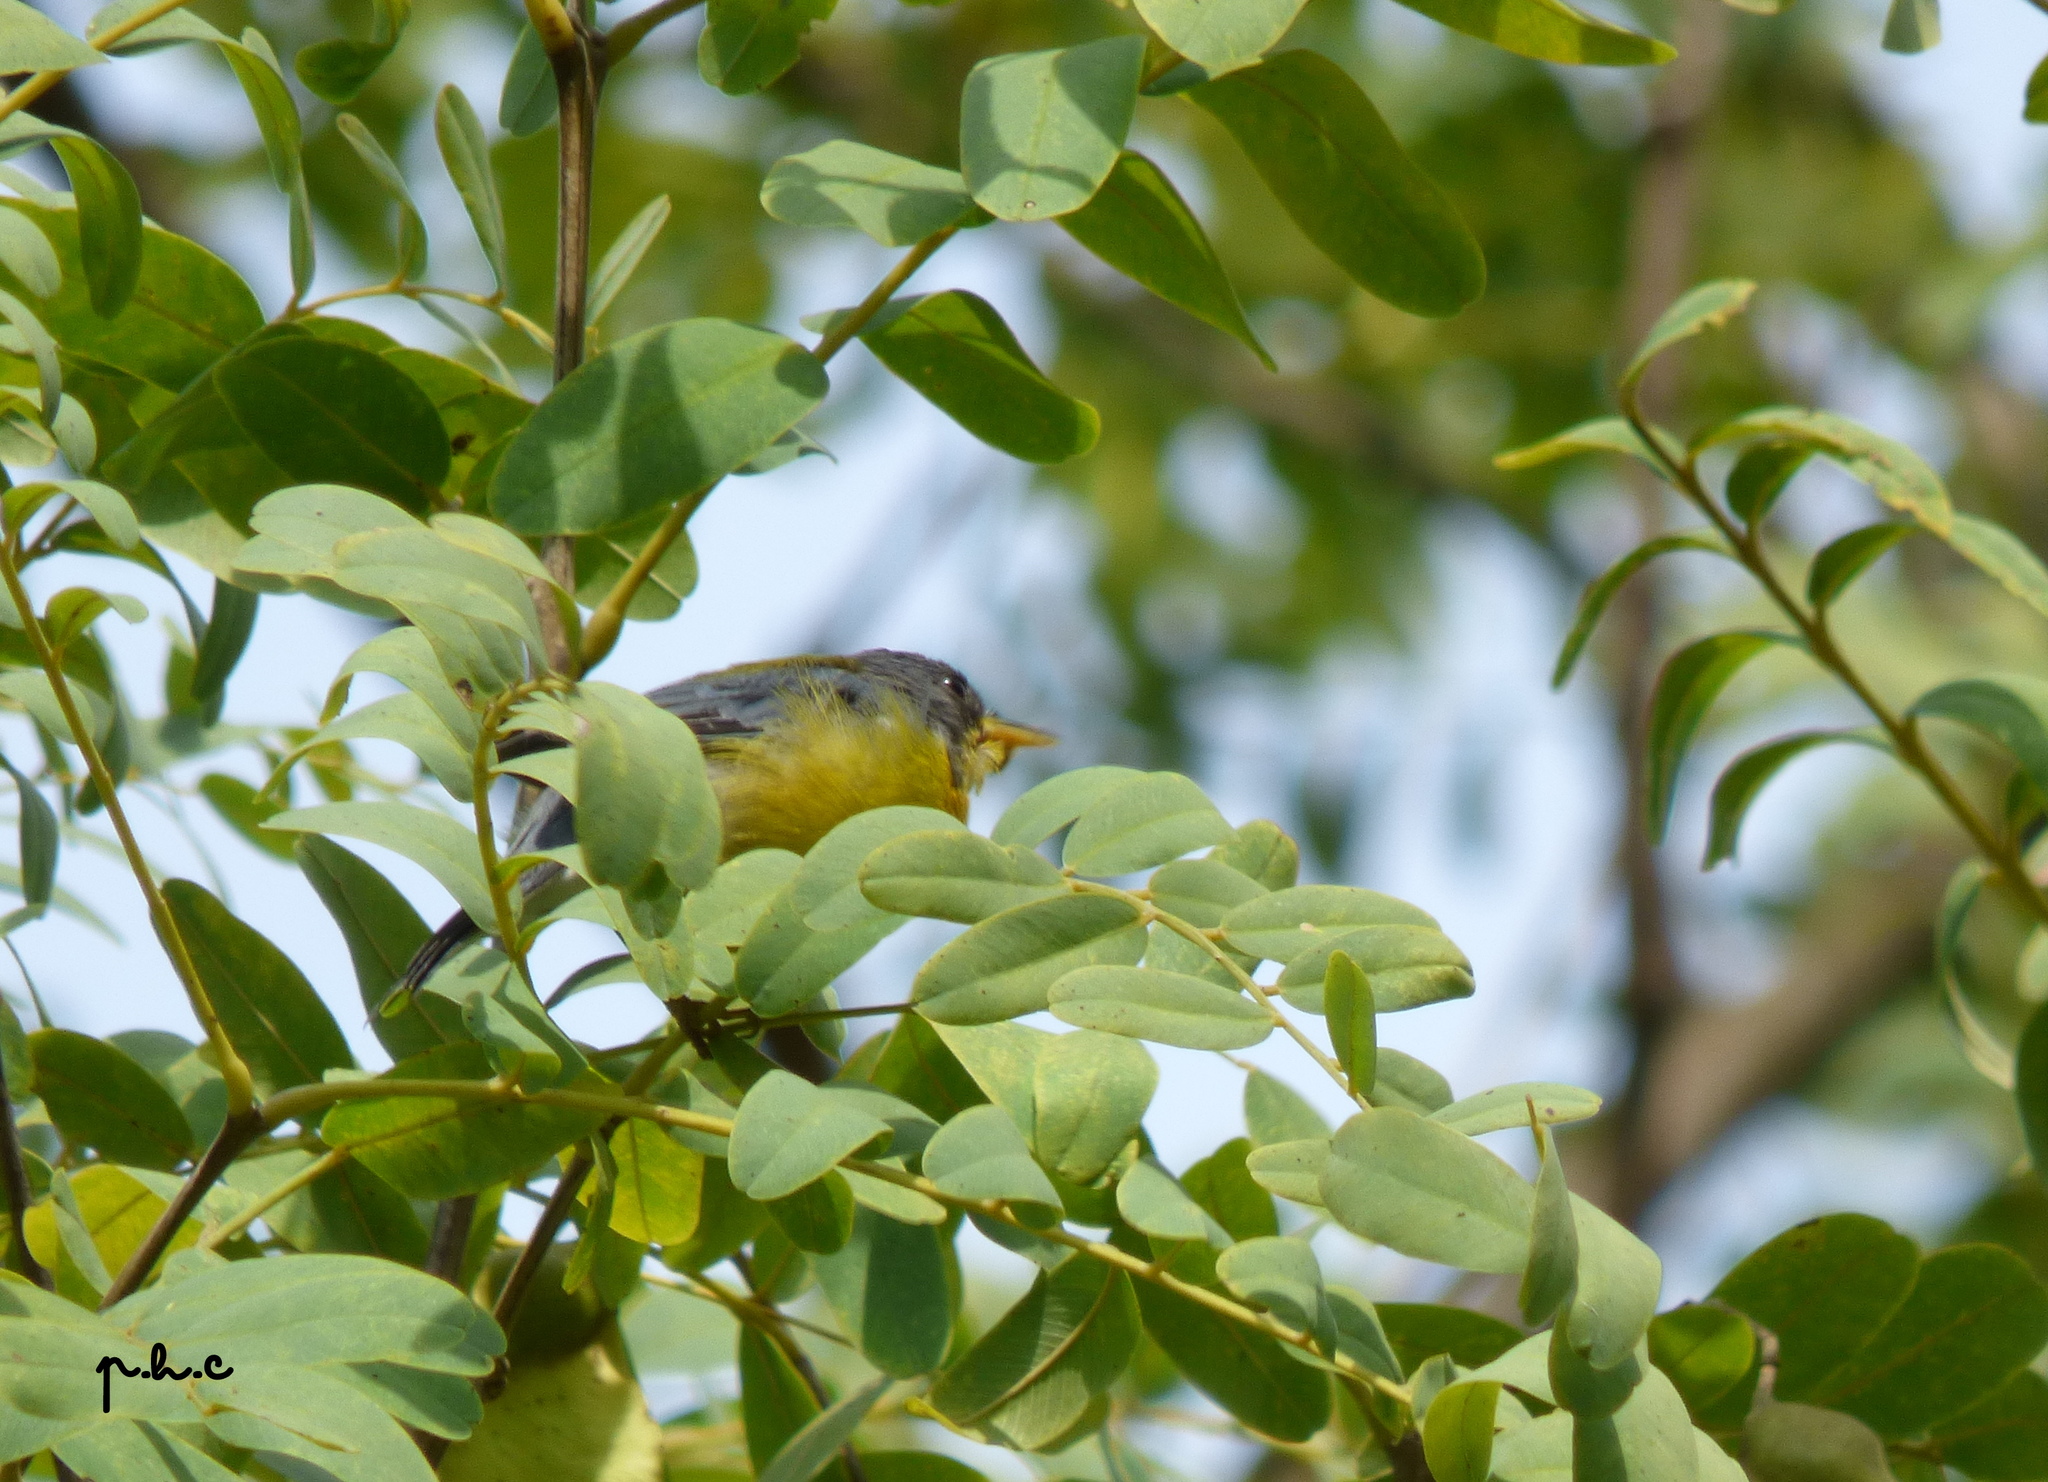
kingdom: Animalia
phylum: Chordata
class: Aves
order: Passeriformes
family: Parulidae
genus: Setophaga
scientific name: Setophaga pitiayumi
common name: Tropical parula
